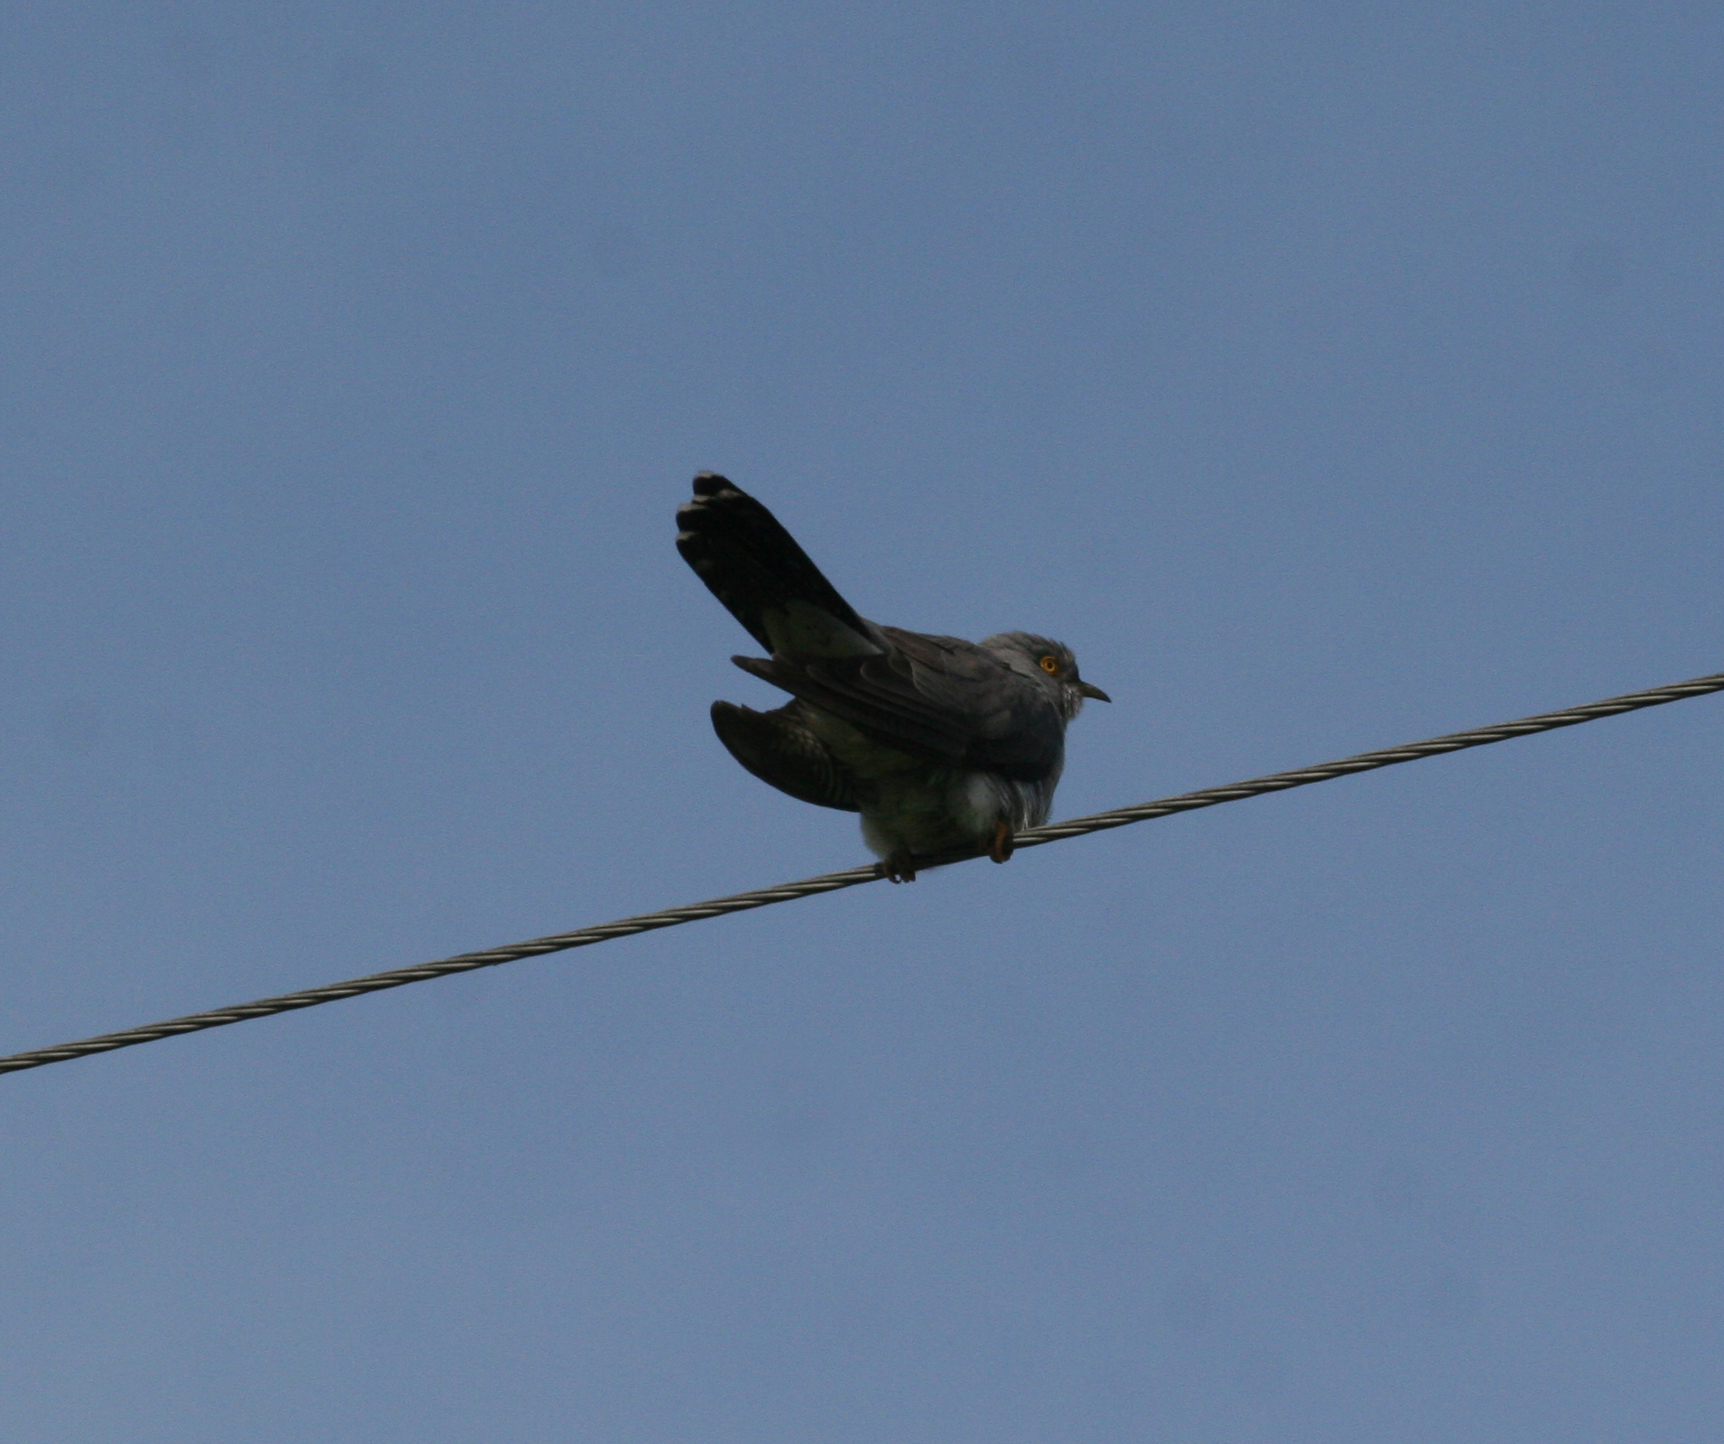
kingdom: Animalia
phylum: Chordata
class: Aves
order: Cuculiformes
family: Cuculidae
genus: Cuculus
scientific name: Cuculus canorus
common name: Common cuckoo
